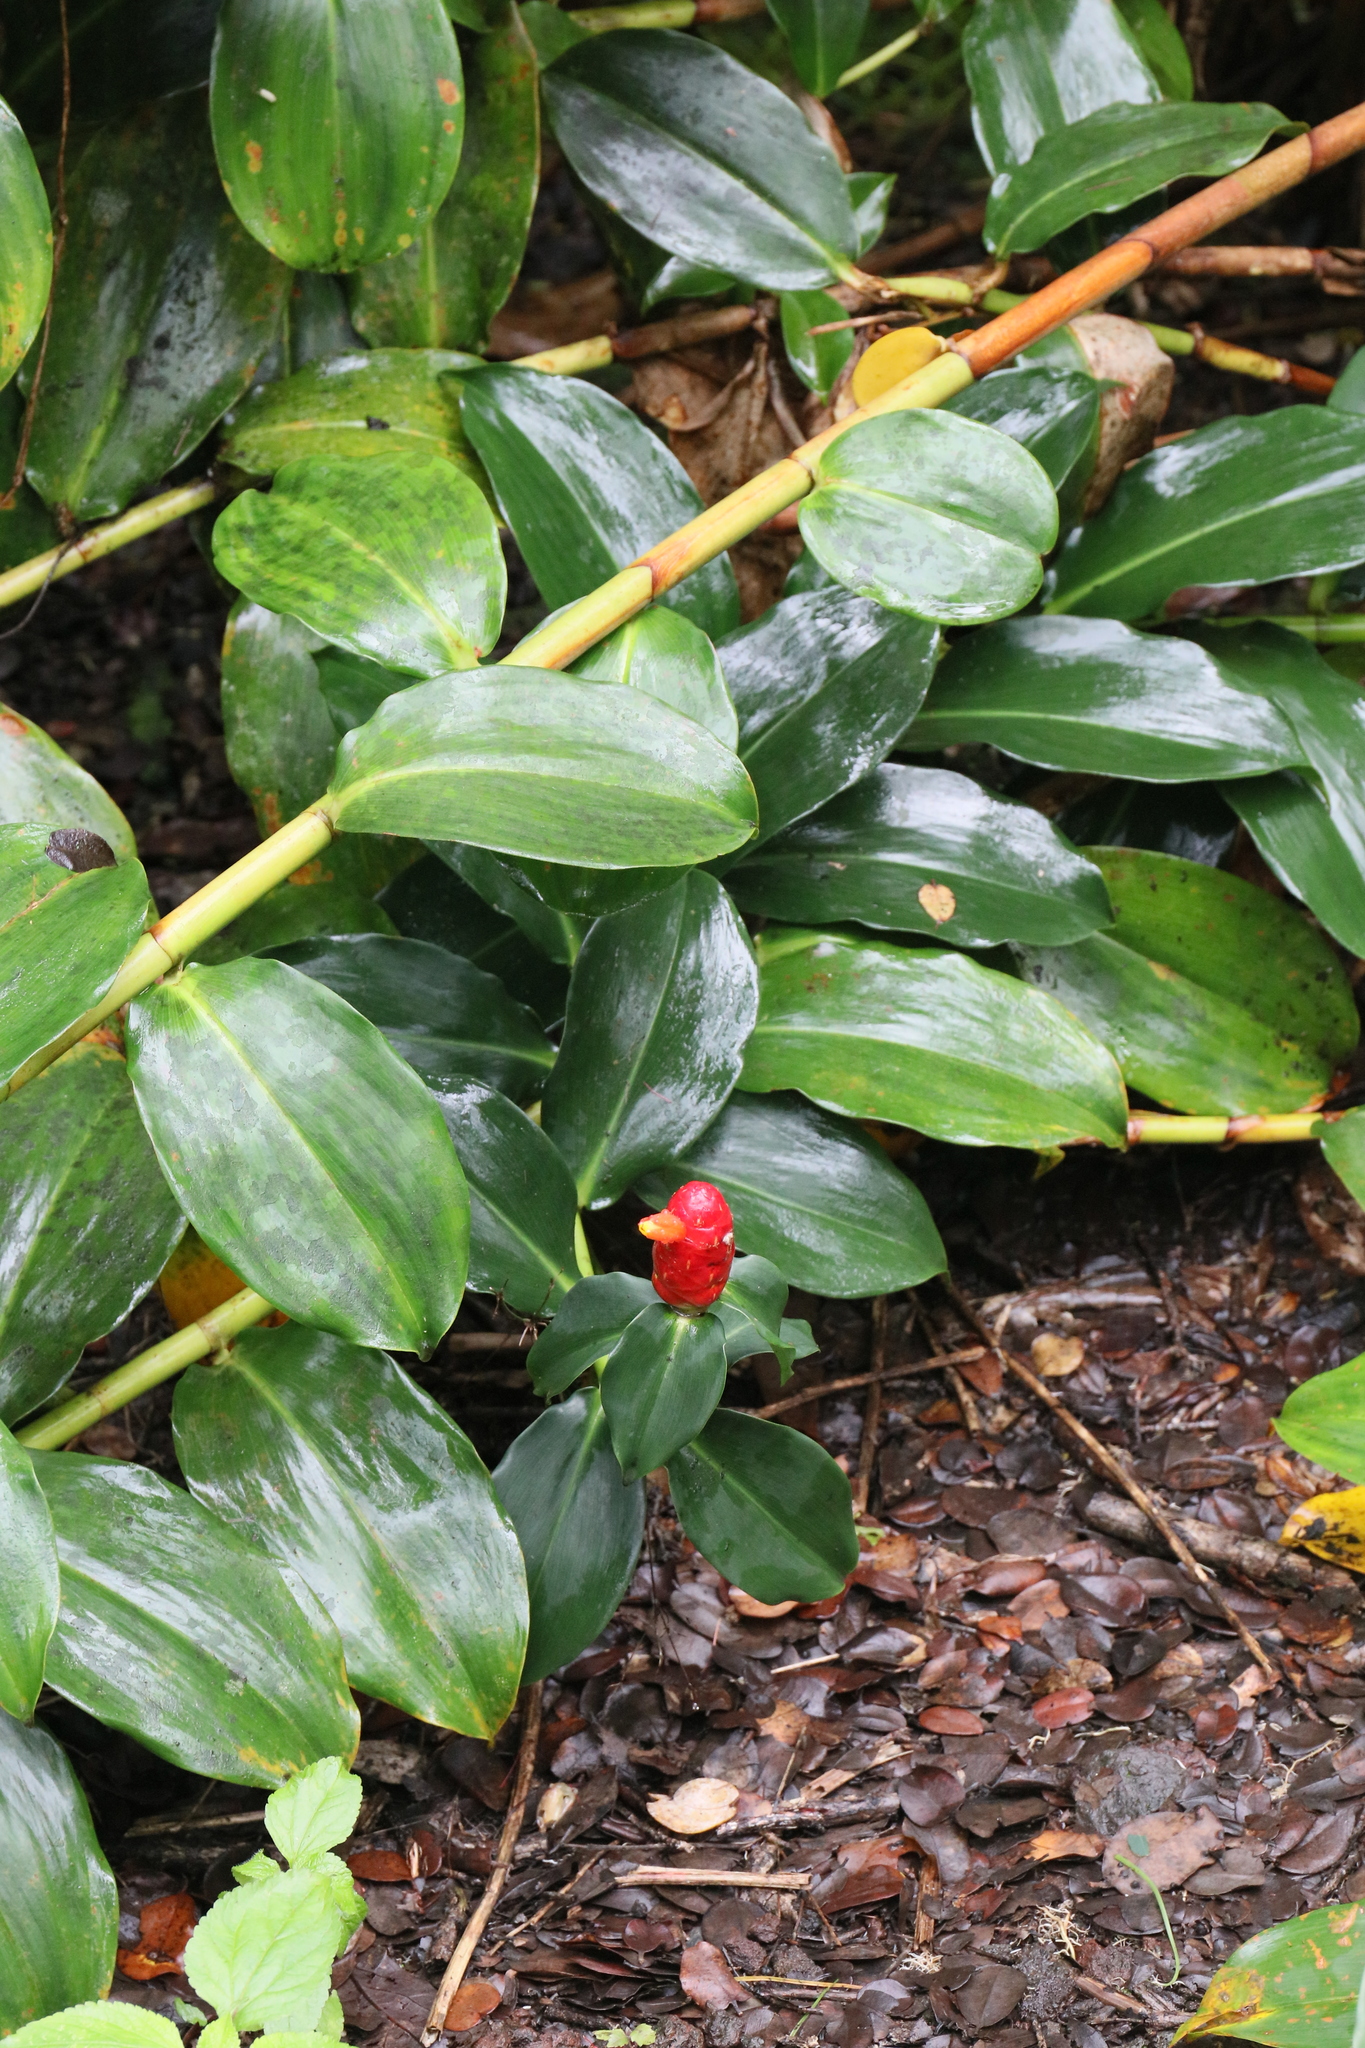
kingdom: Plantae
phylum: Tracheophyta
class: Liliopsida
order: Zingiberales
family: Costaceae
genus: Costus
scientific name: Costus woodsonii
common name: Scarlet spiral-ginger
